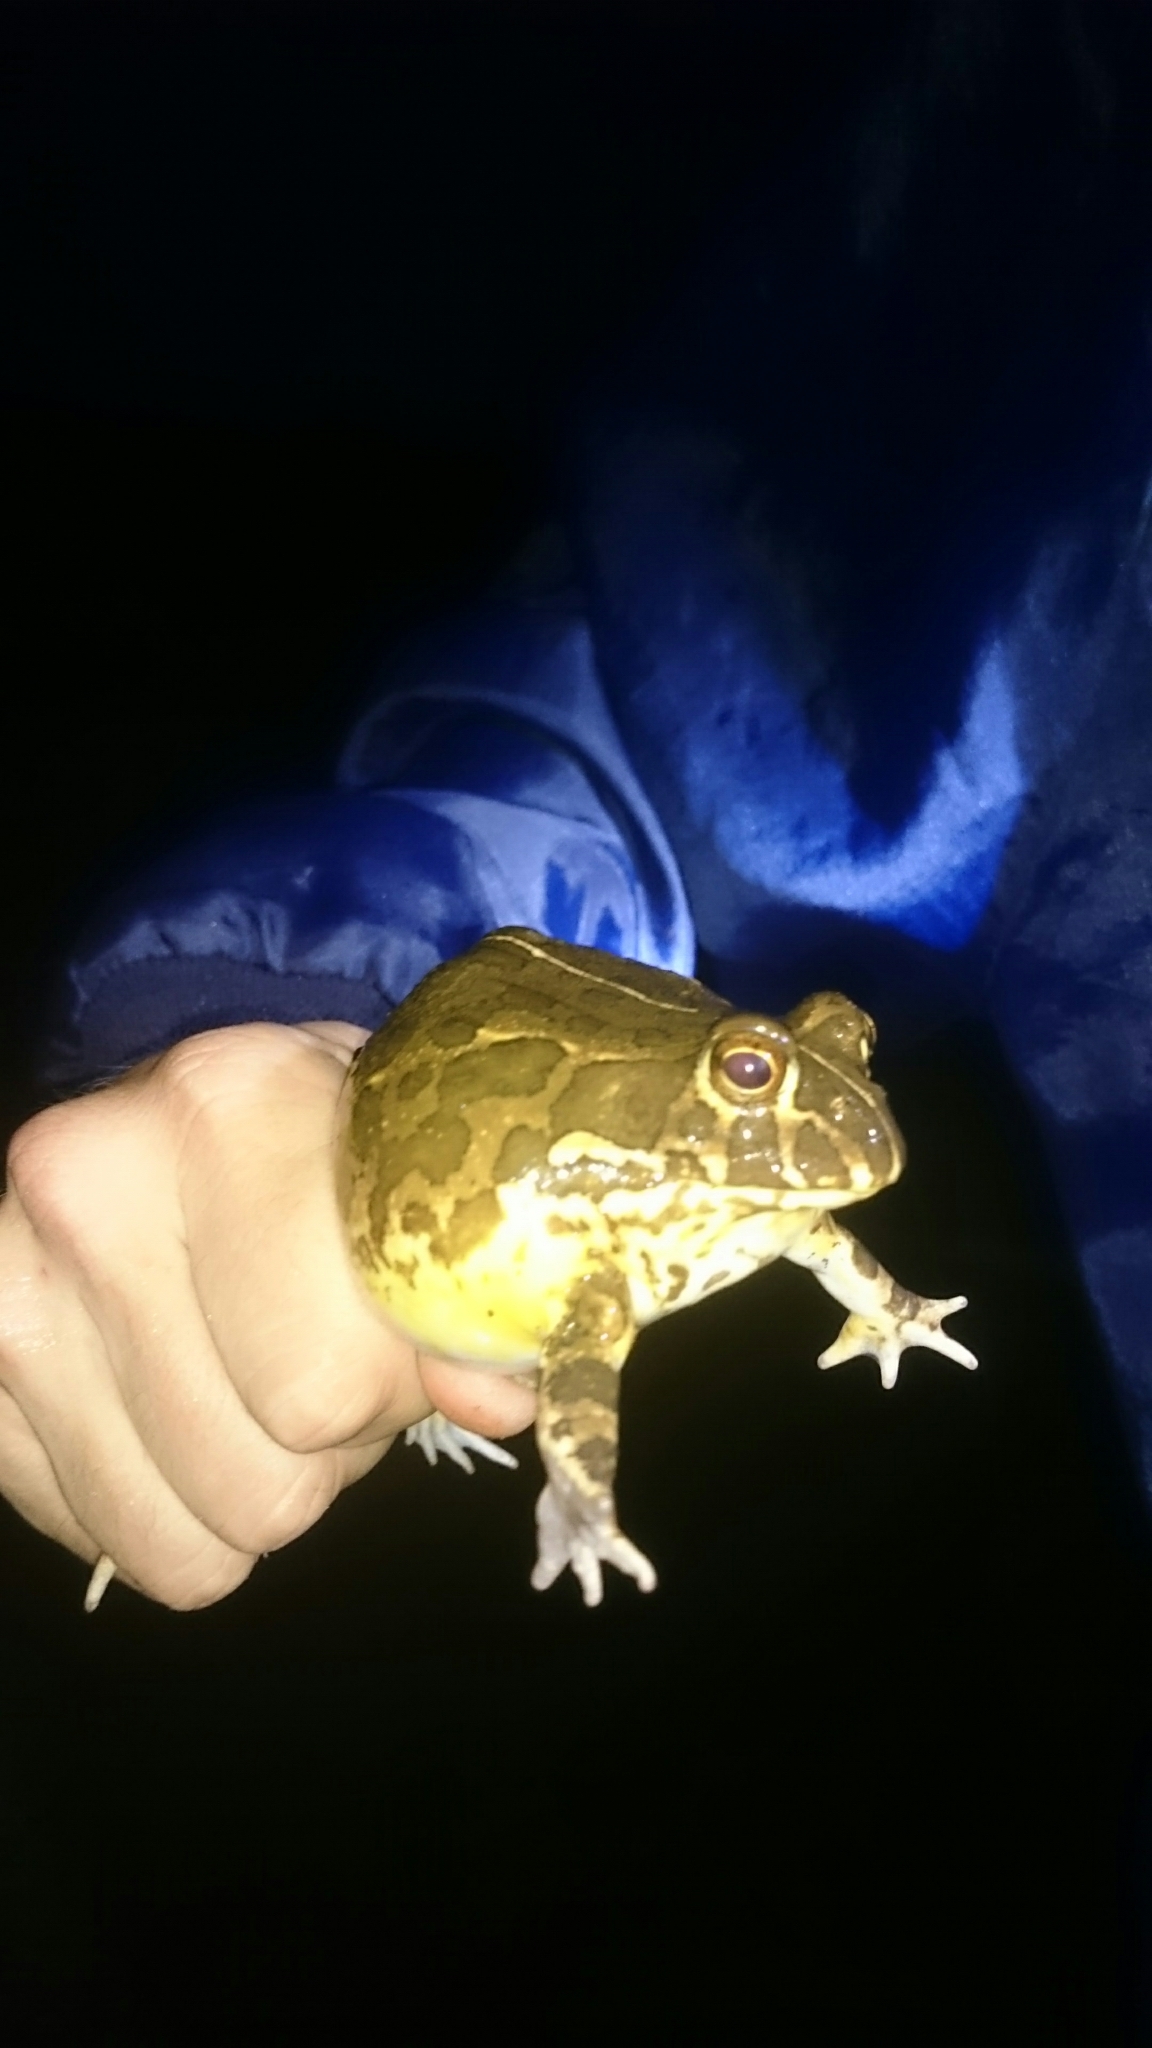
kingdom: Animalia
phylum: Chordata
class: Amphibia
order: Anura
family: Pyxicephalidae
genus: Pyxicephalus
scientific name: Pyxicephalus edulis
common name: Peter's bullfrog
